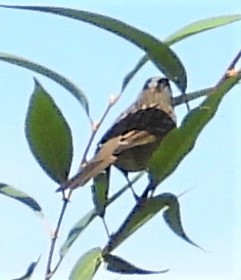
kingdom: Animalia
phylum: Chordata
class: Aves
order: Passeriformes
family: Passerellidae
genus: Zonotrichia
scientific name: Zonotrichia leucophrys
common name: White-crowned sparrow
